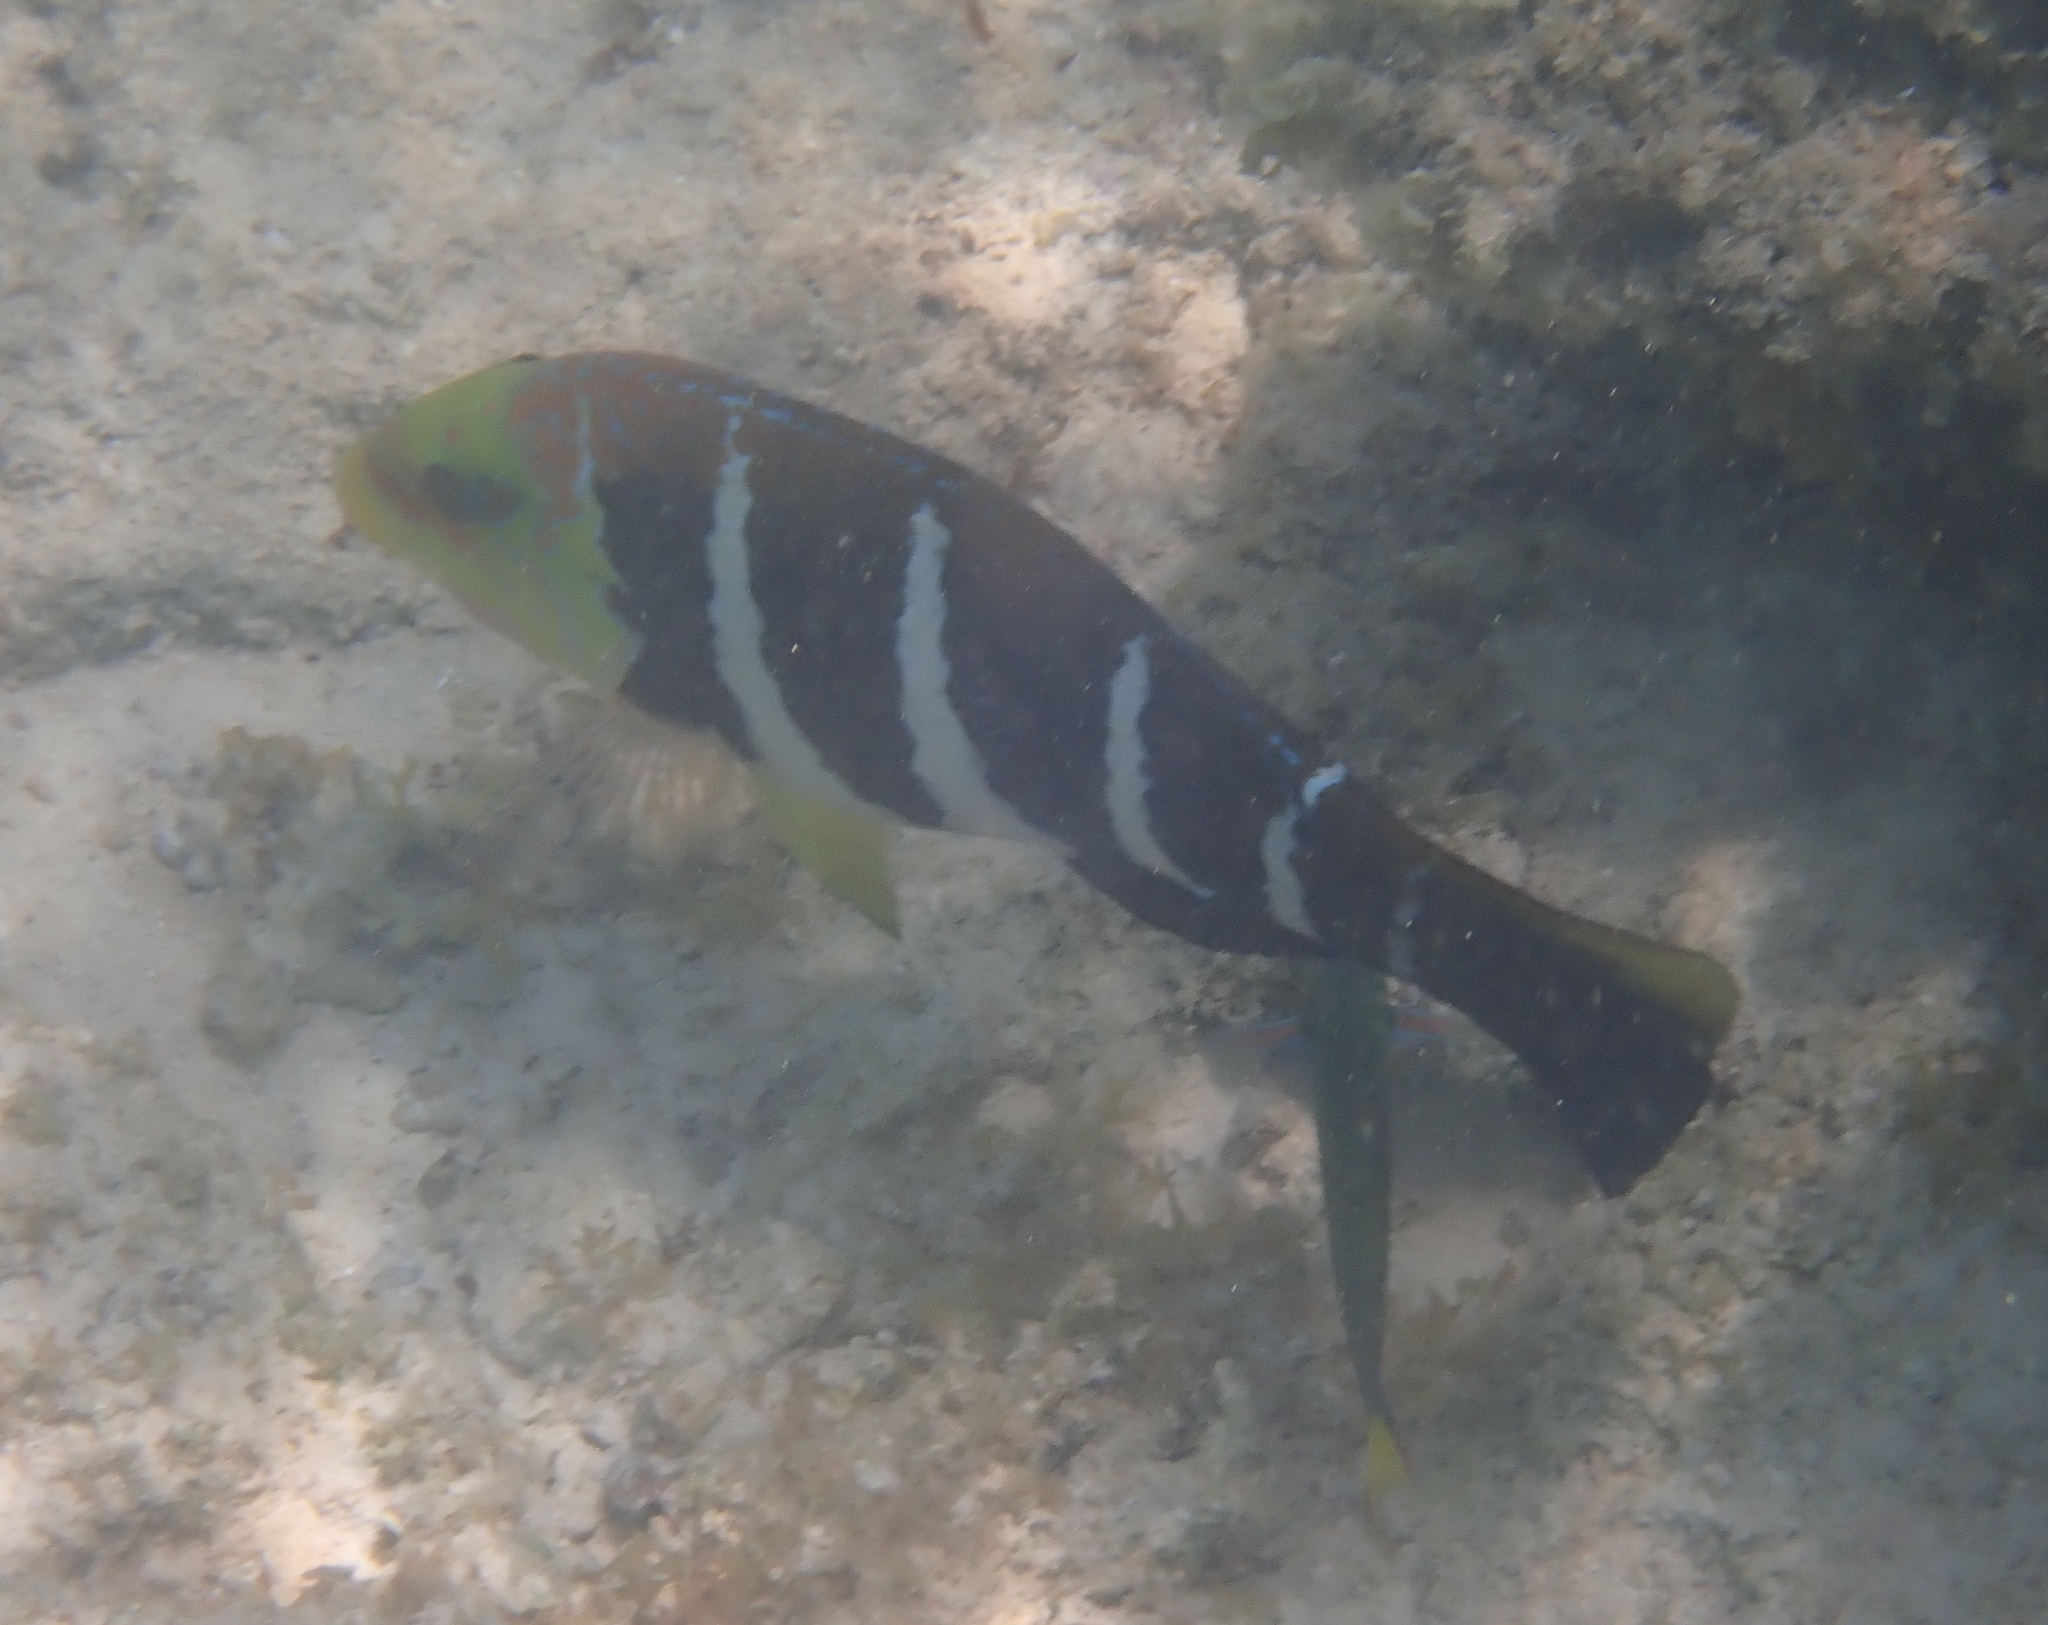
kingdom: Animalia
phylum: Chordata
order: Perciformes
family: Labridae
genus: Hemigymnus
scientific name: Hemigymnus fasciatus
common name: Barred thicklip
